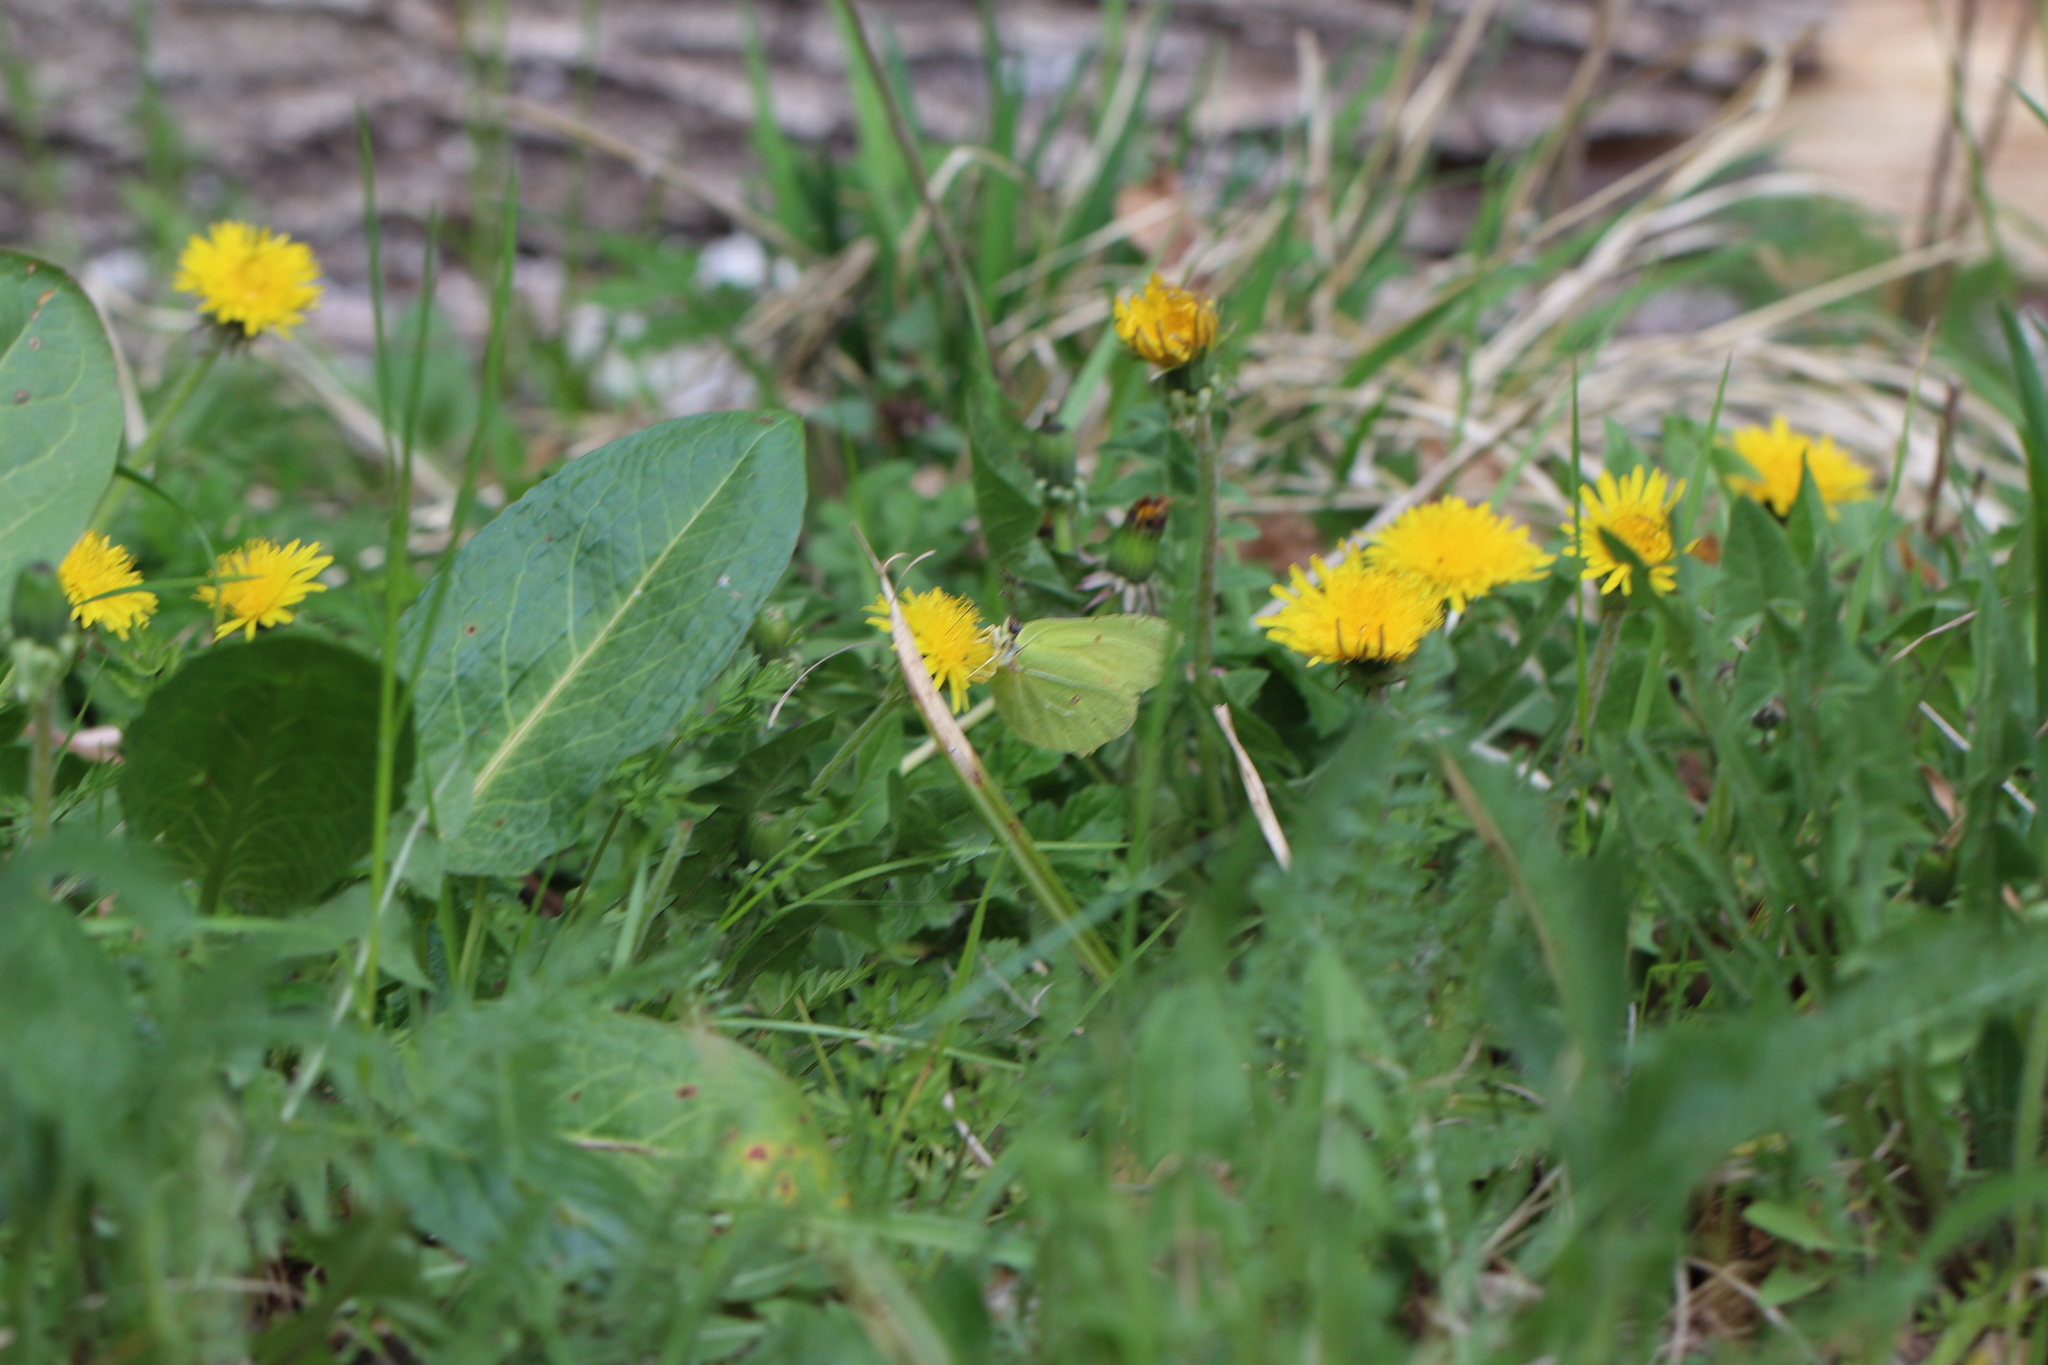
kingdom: Animalia
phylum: Arthropoda
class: Insecta
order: Lepidoptera
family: Pieridae
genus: Gonepteryx
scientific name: Gonepteryx rhamni
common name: Brimstone
